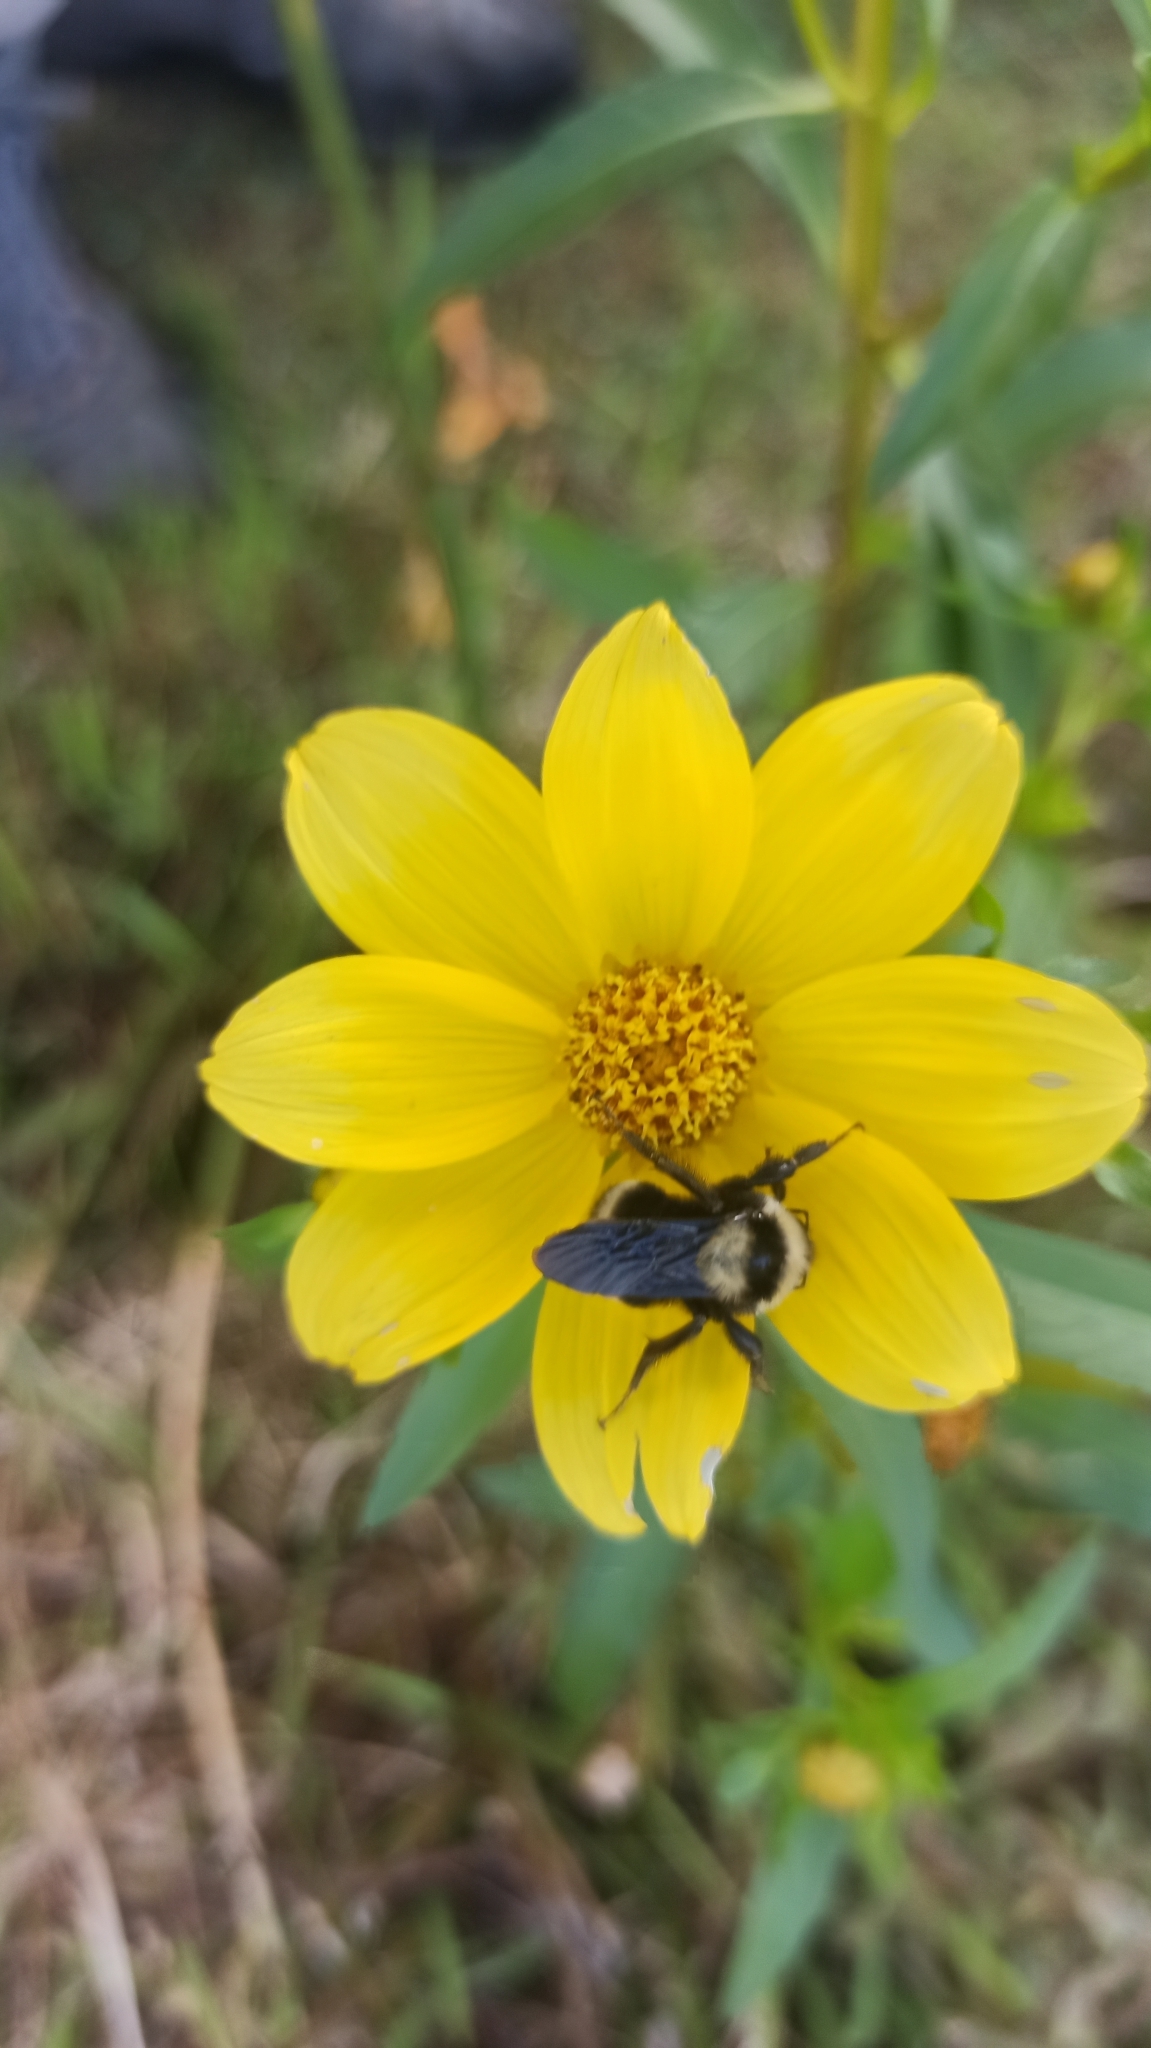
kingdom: Animalia
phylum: Arthropoda
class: Insecta
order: Hymenoptera
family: Apidae
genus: Bombus
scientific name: Bombus pauloensis
